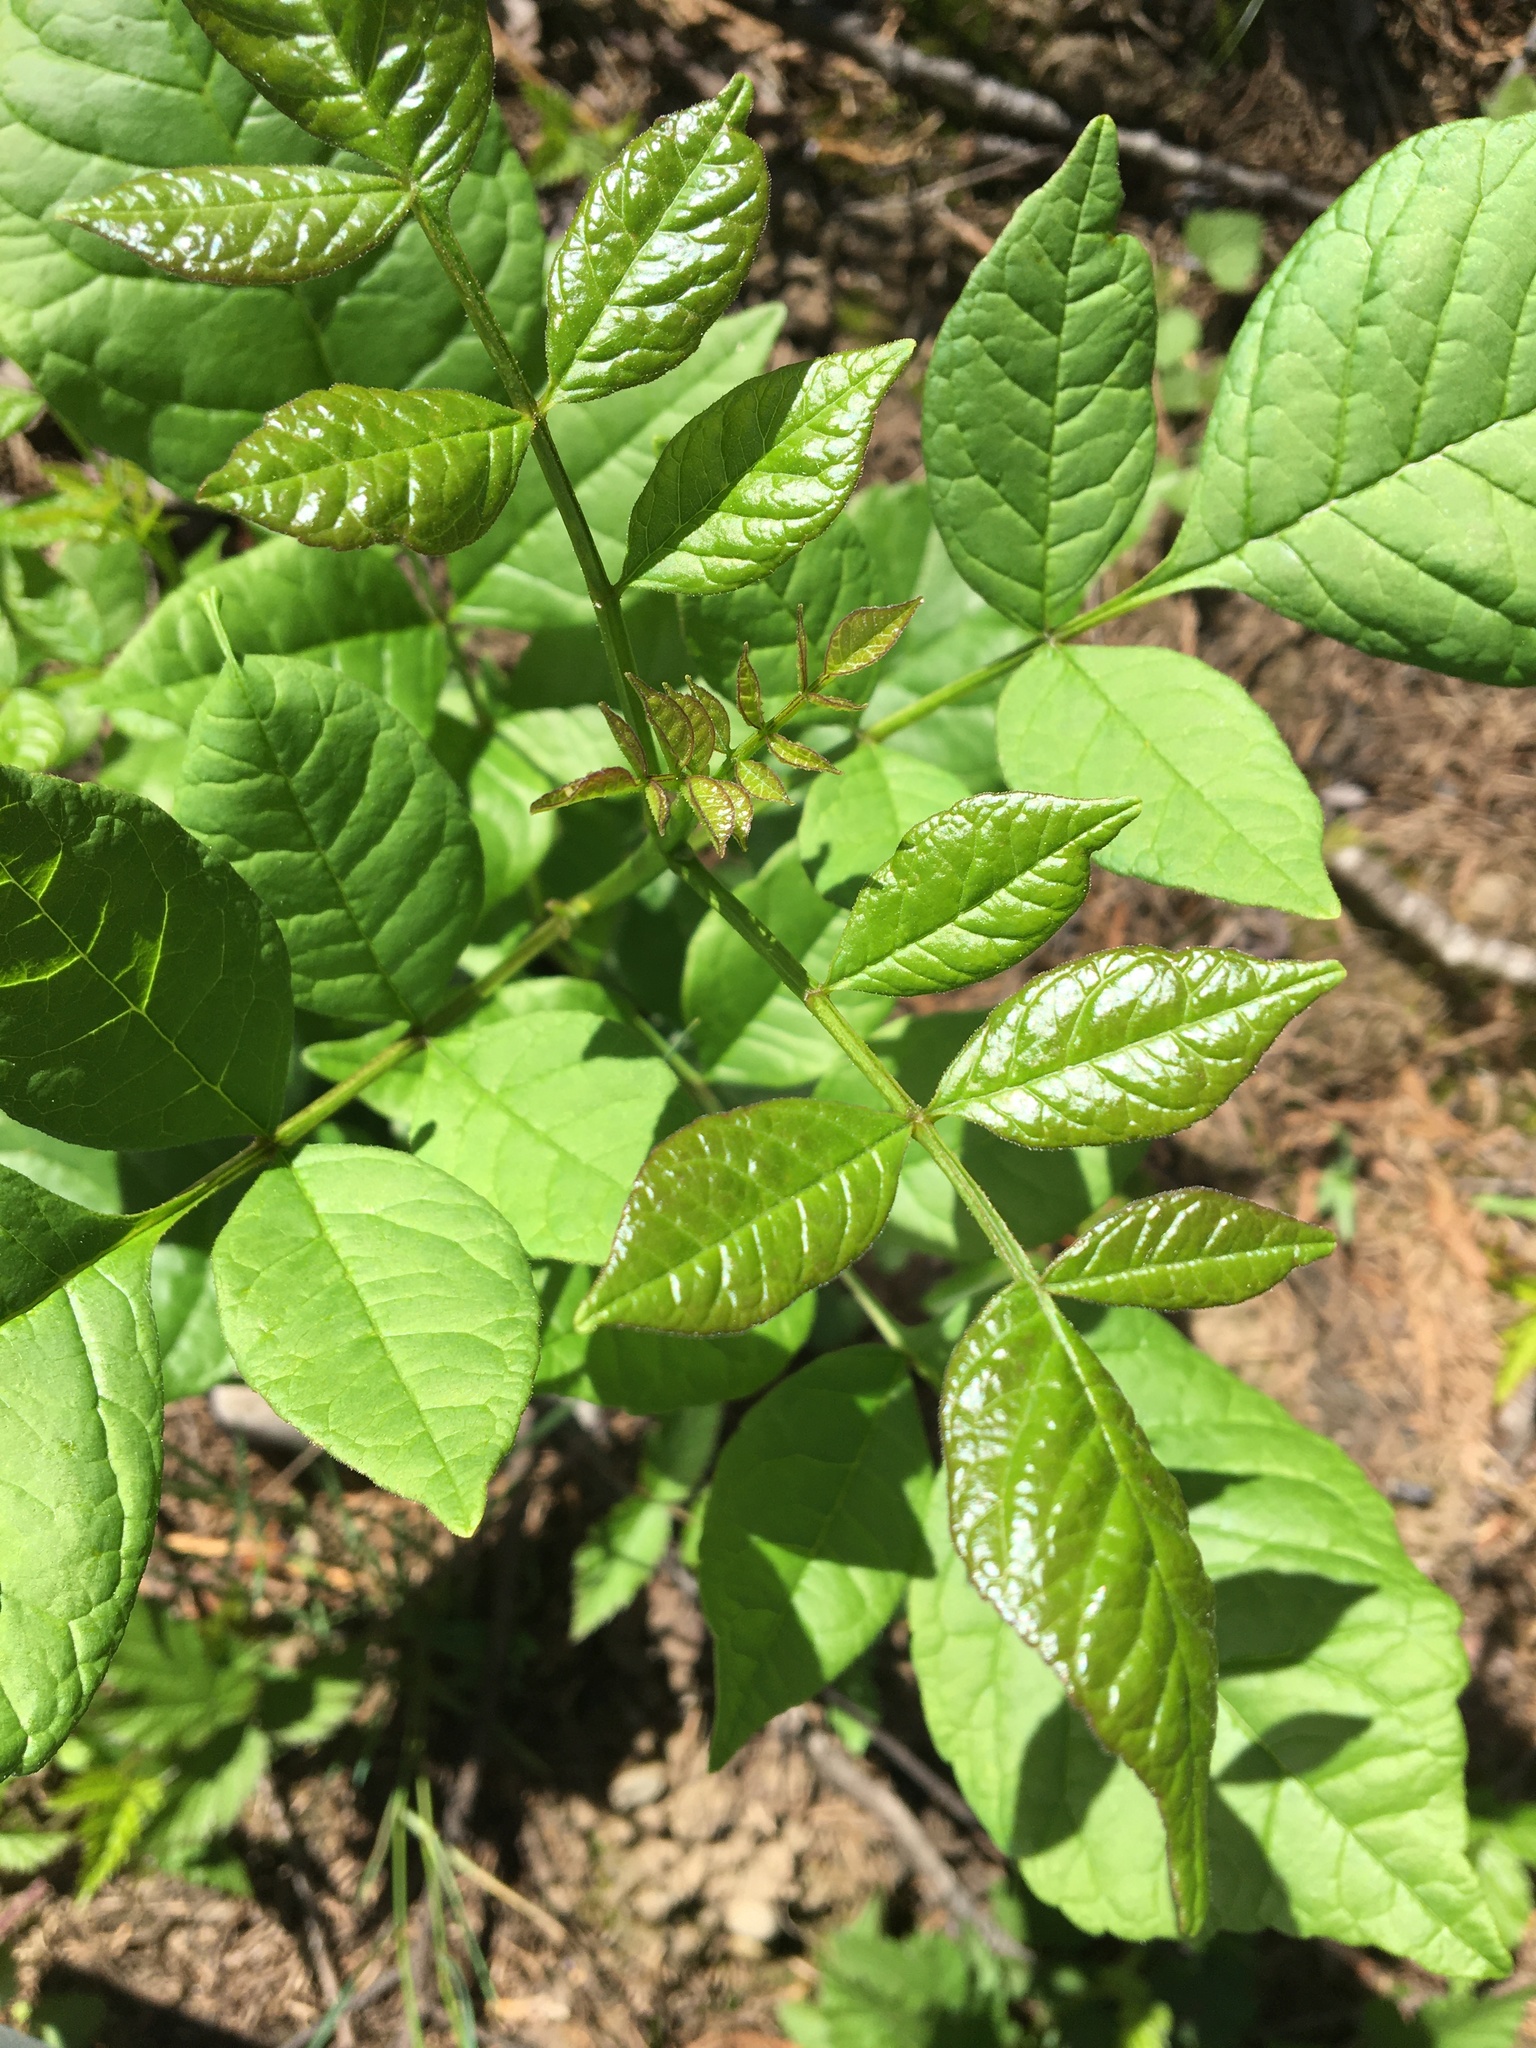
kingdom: Plantae
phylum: Tracheophyta
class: Magnoliopsida
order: Lamiales
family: Oleaceae
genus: Fraxinus
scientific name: Fraxinus latifolia
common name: Oregon ash
